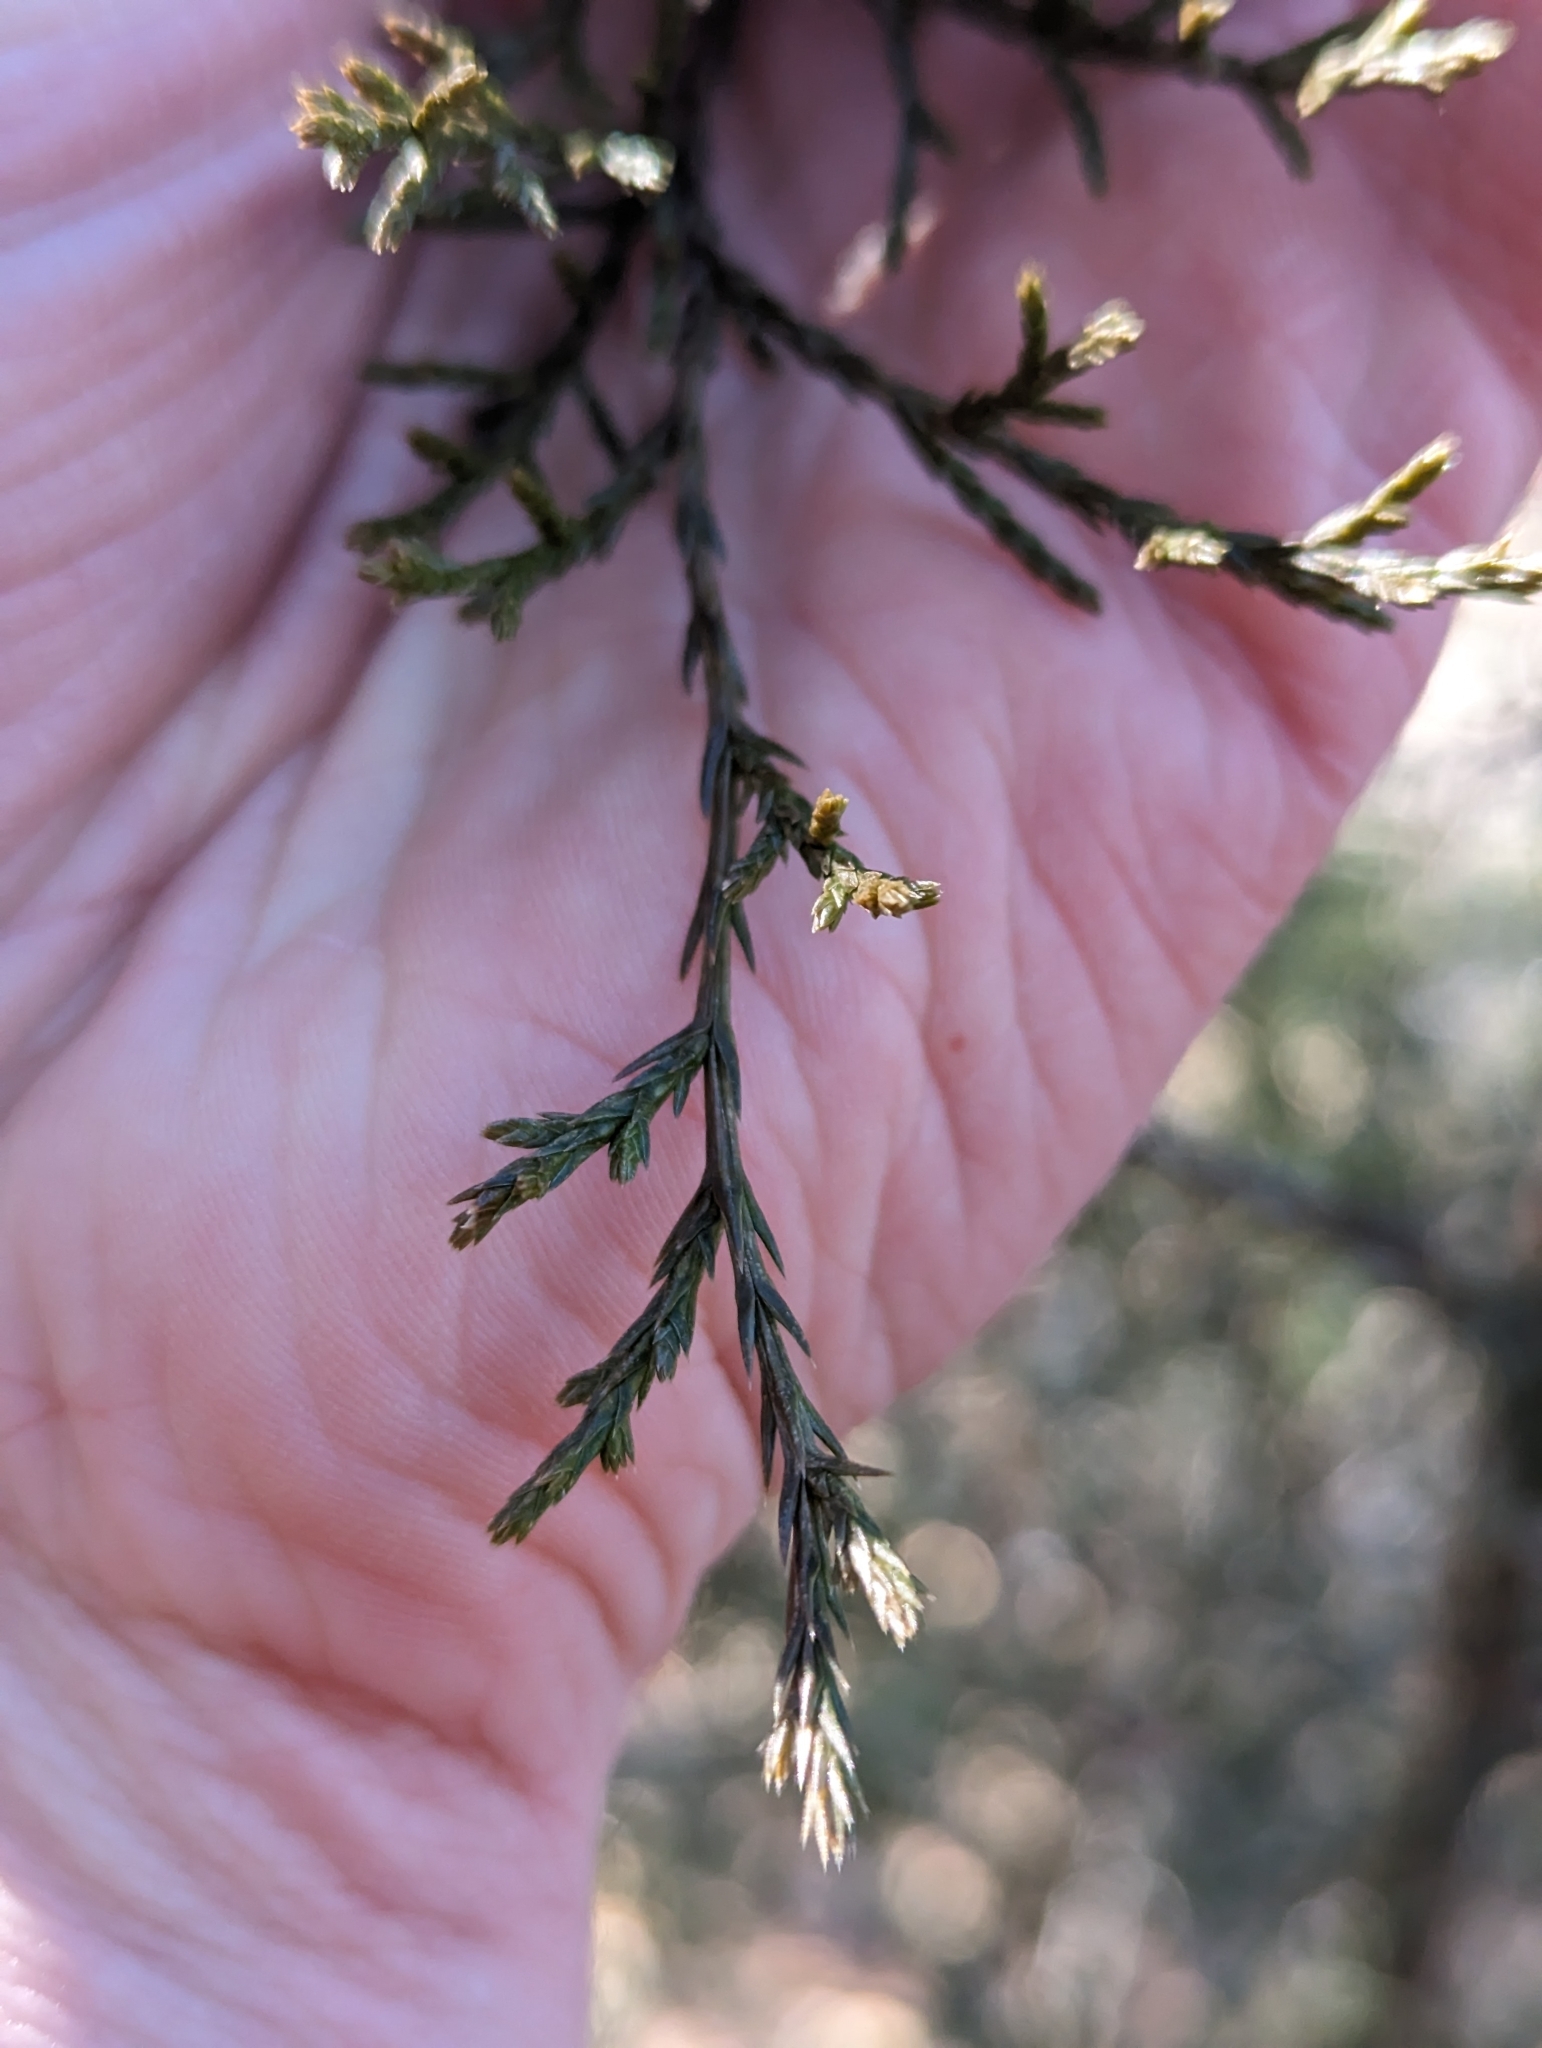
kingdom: Plantae
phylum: Tracheophyta
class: Pinopsida
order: Pinales
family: Cupressaceae
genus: Juniperus
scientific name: Juniperus virginiana
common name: Red juniper
